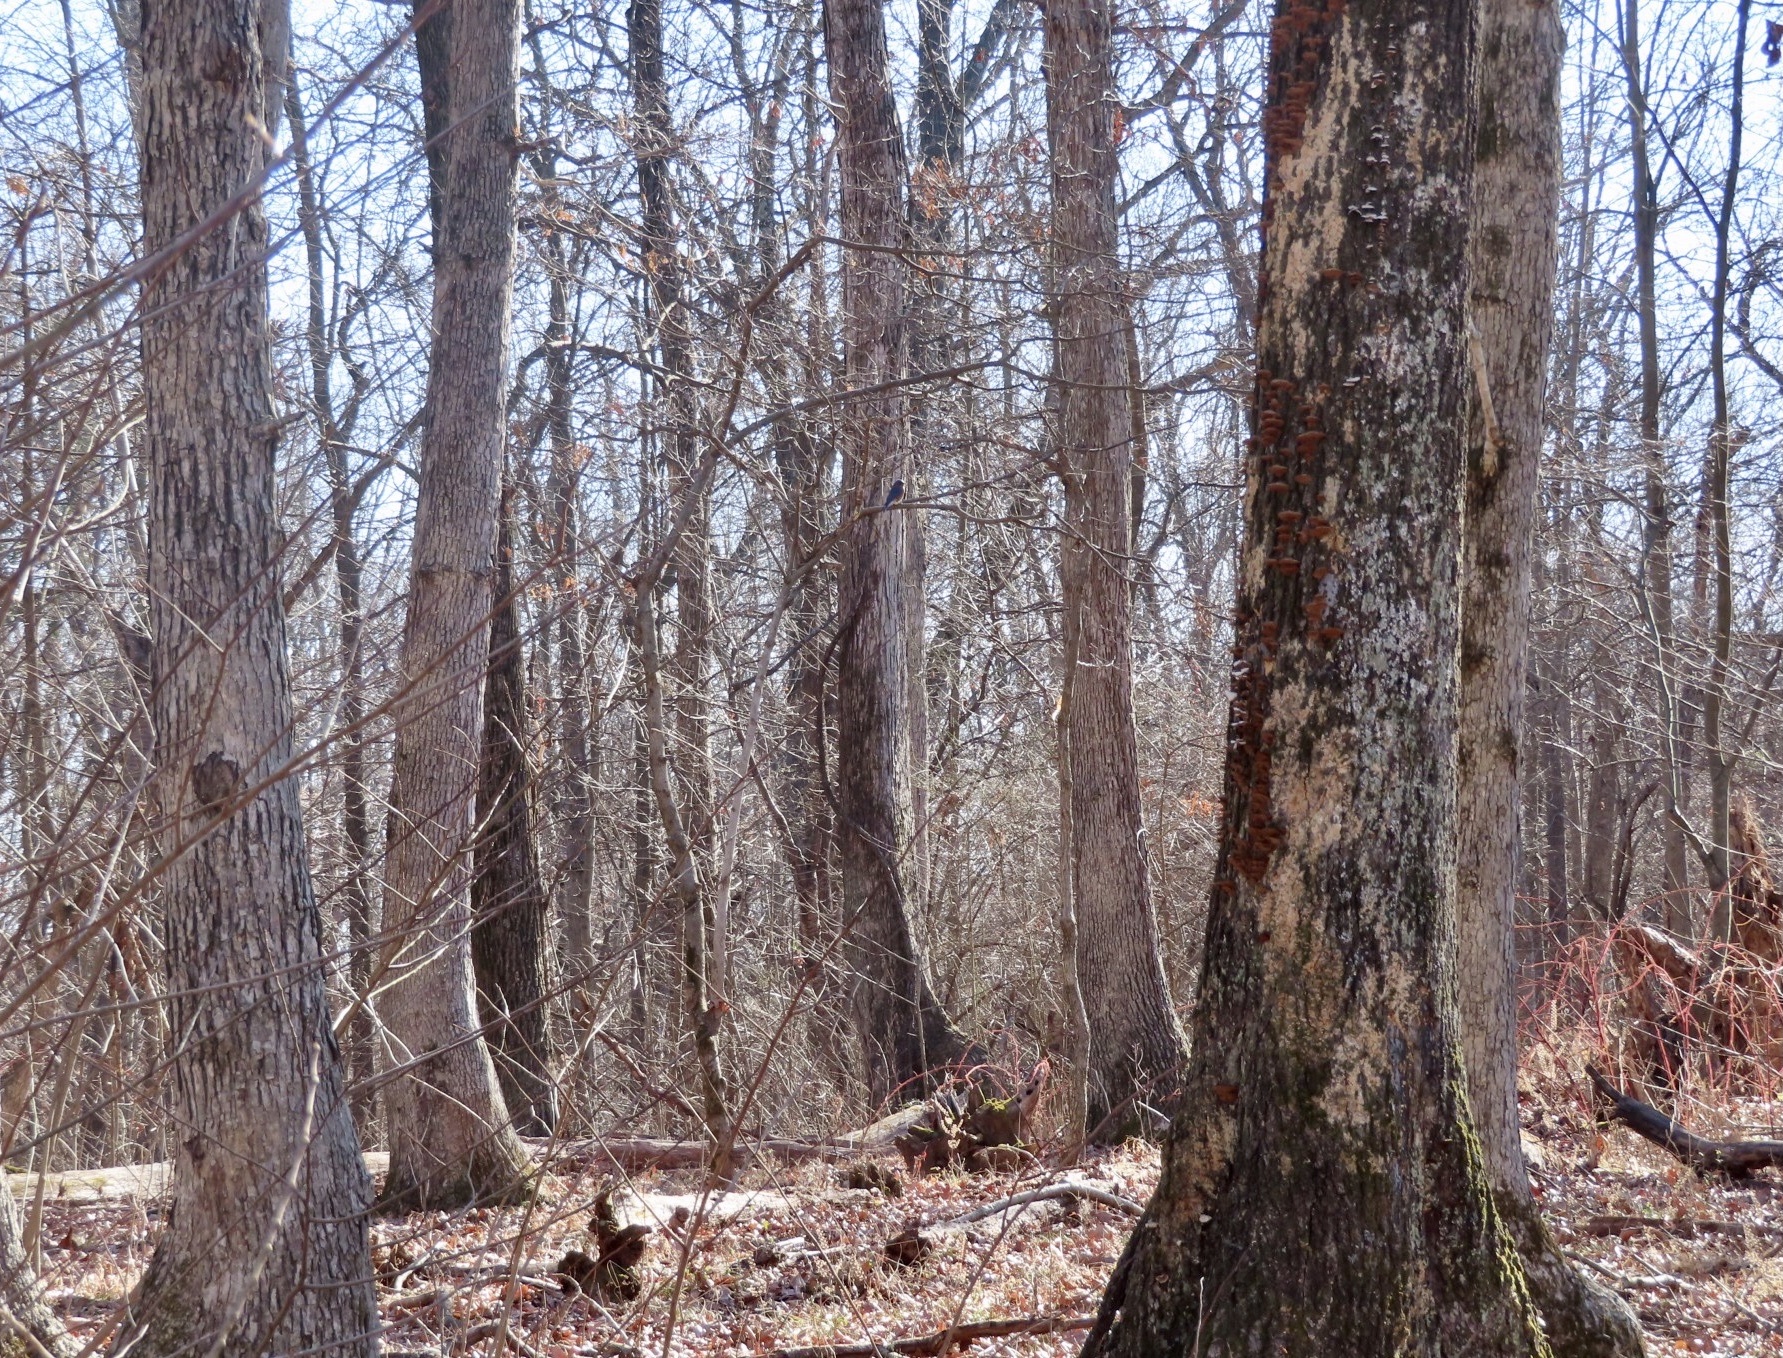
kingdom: Animalia
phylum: Chordata
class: Aves
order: Passeriformes
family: Turdidae
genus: Sialia
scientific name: Sialia sialis
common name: Eastern bluebird
